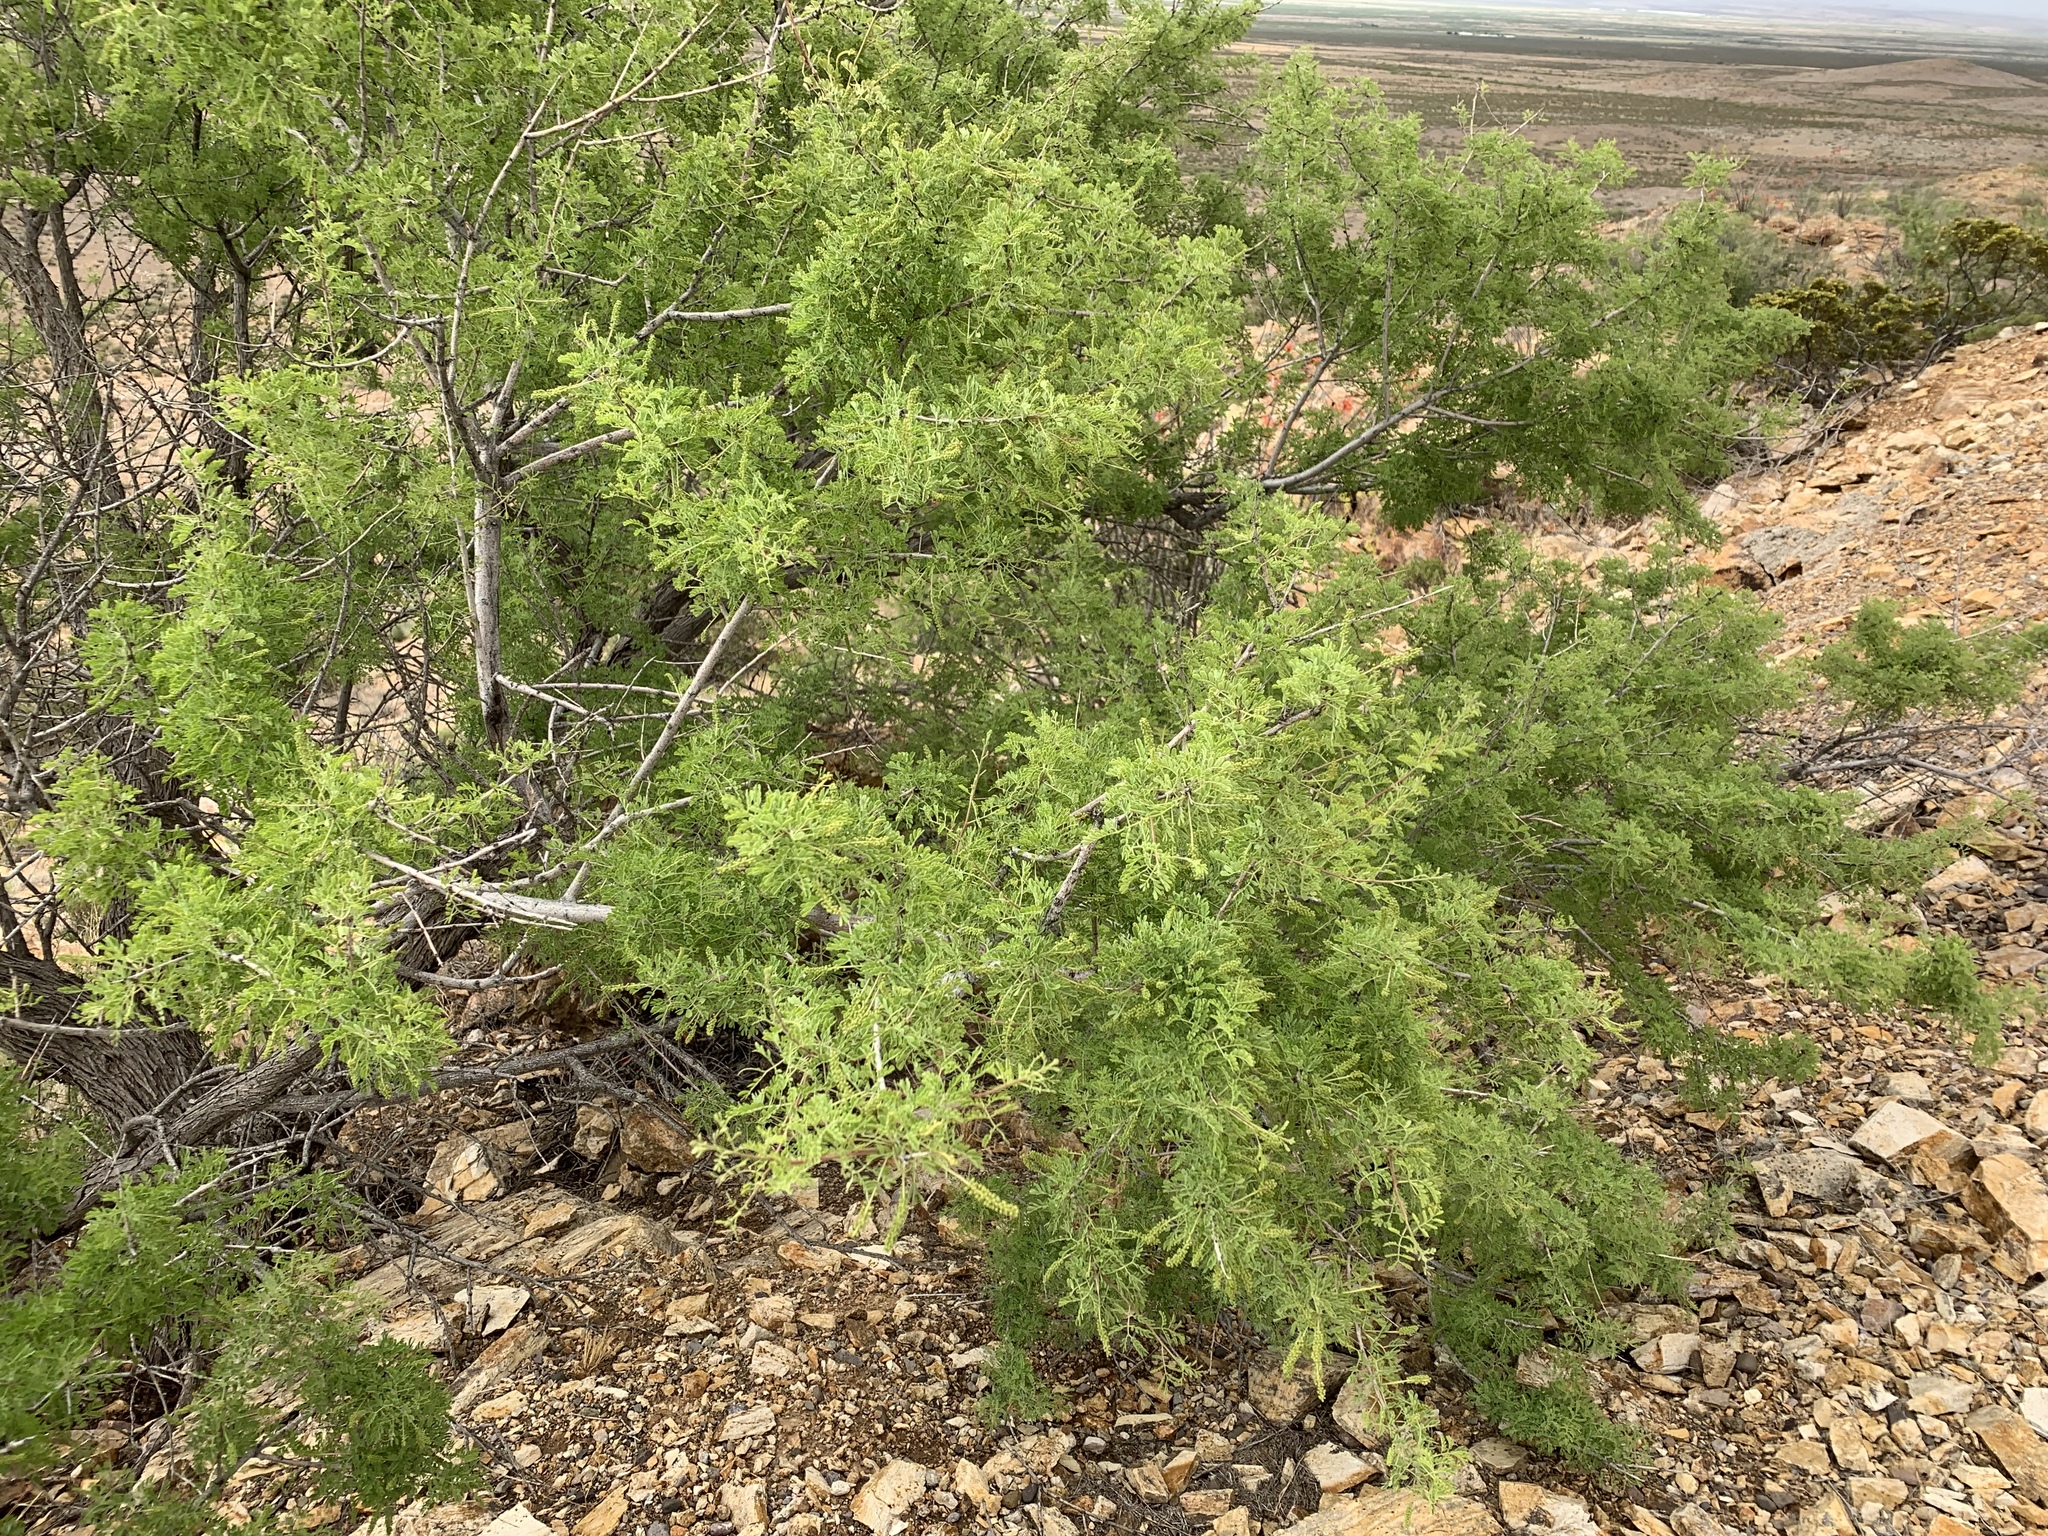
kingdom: Plantae
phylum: Tracheophyta
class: Magnoliopsida
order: Fabales
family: Fabaceae
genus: Senegalia
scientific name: Senegalia greggii
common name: Texas-mimosa
